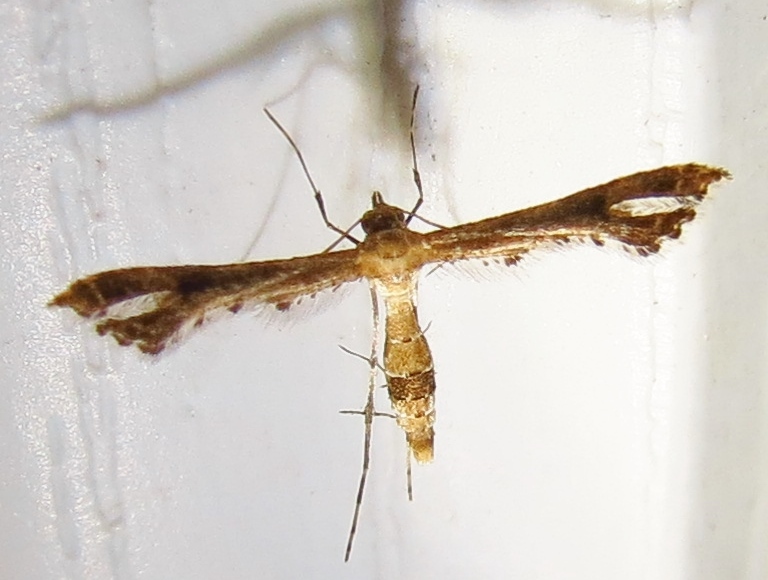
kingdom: Animalia
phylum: Arthropoda
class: Insecta
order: Lepidoptera
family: Pterophoridae
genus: Lantanophaga
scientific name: Lantanophaga pusillidactylus
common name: Moth
